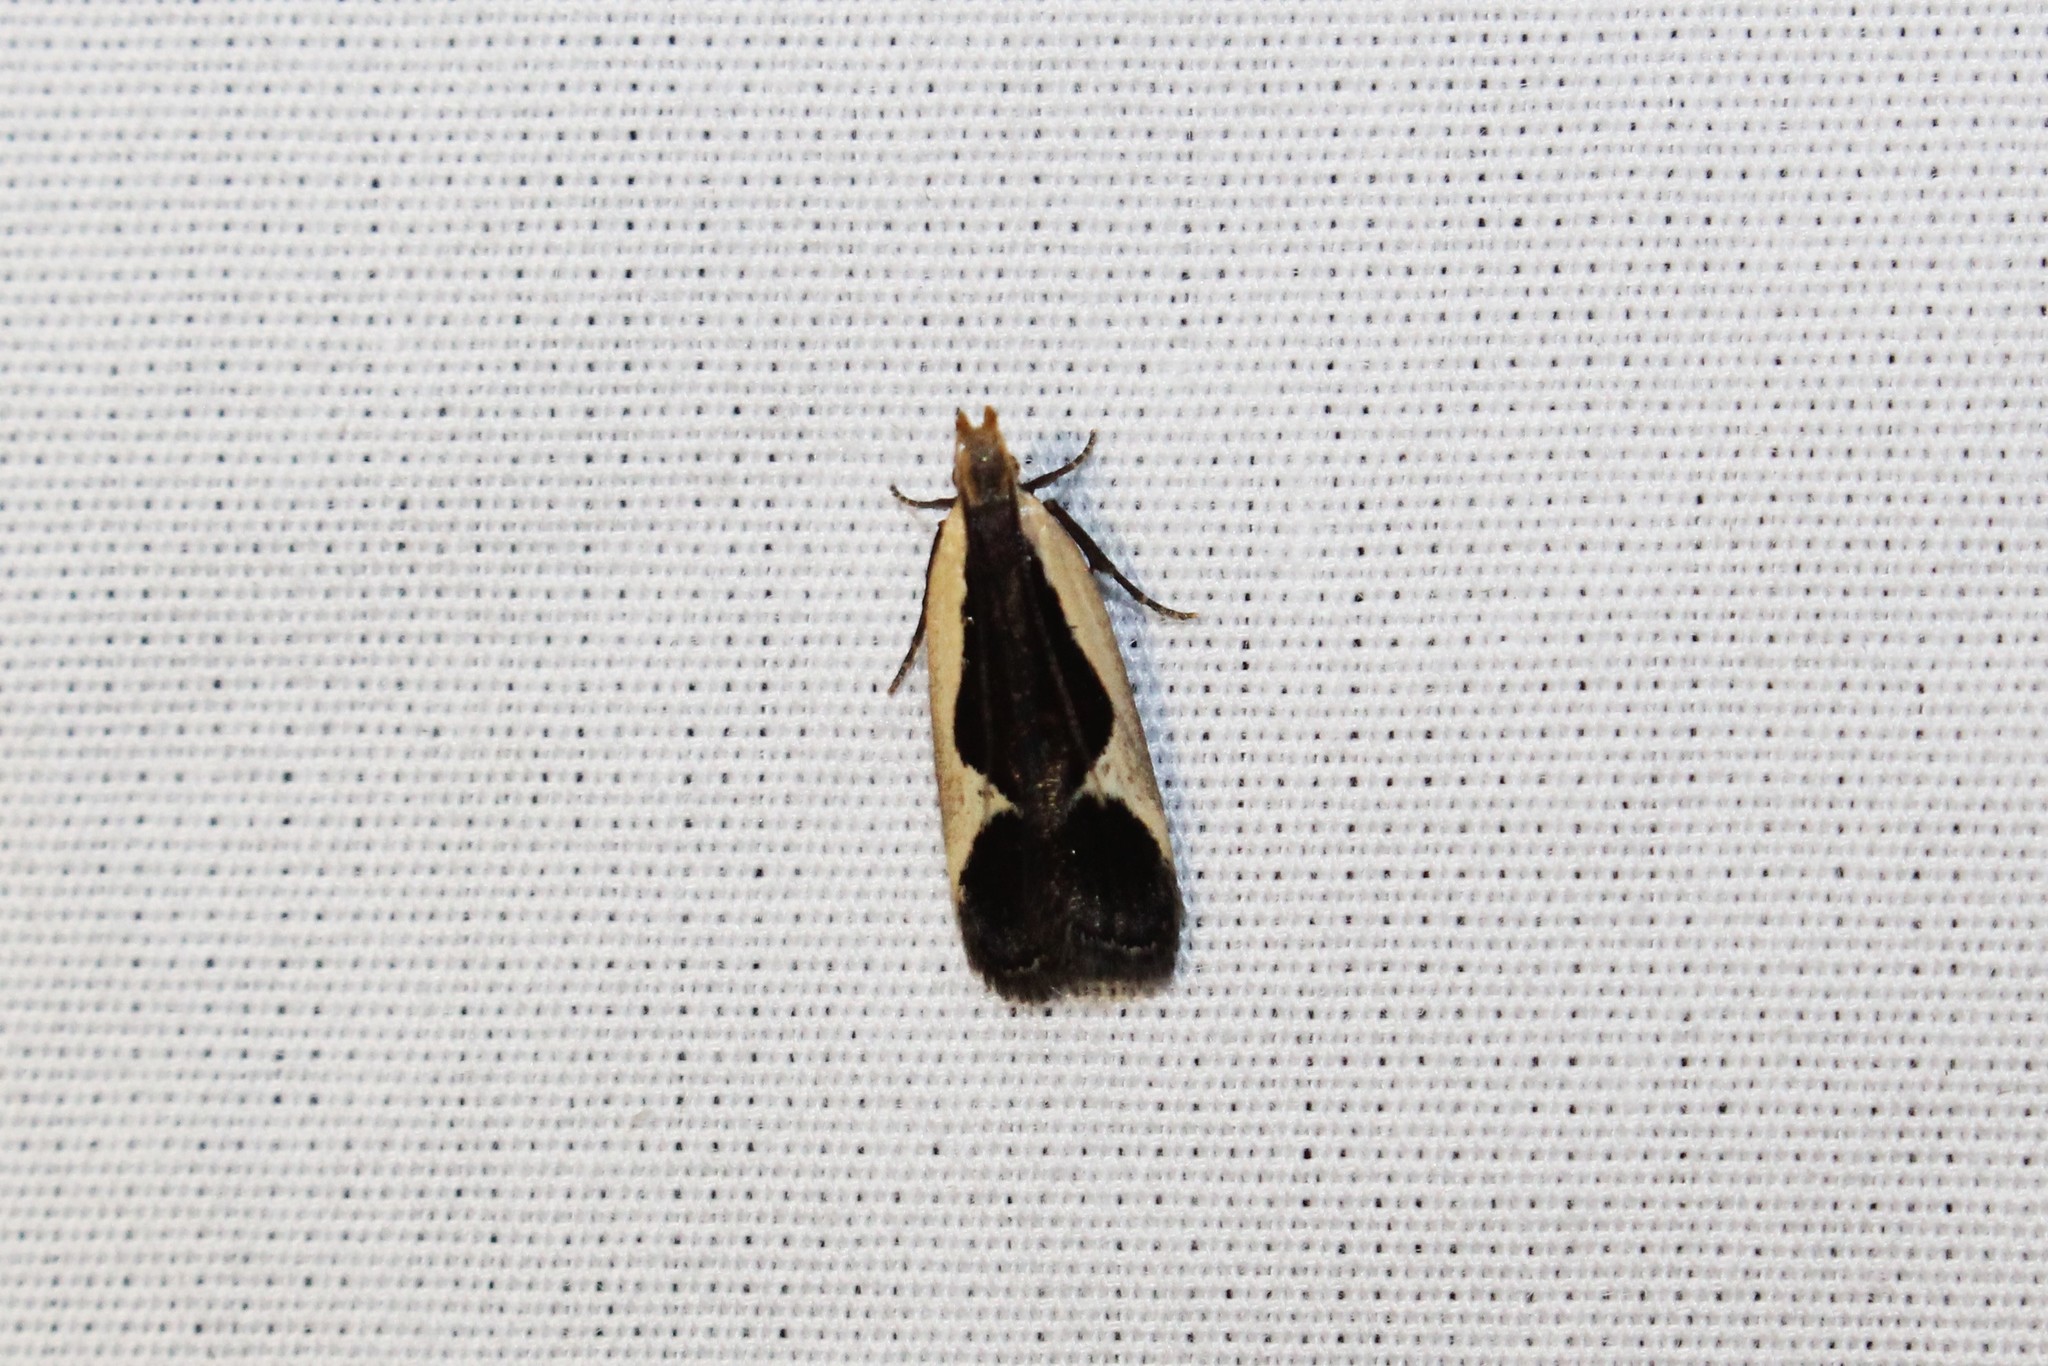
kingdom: Animalia
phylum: Arthropoda
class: Insecta
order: Lepidoptera
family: Gelechiidae
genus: Dichomeris
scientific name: Dichomeris flavocostella
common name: Cream-edged dichomeris moth
